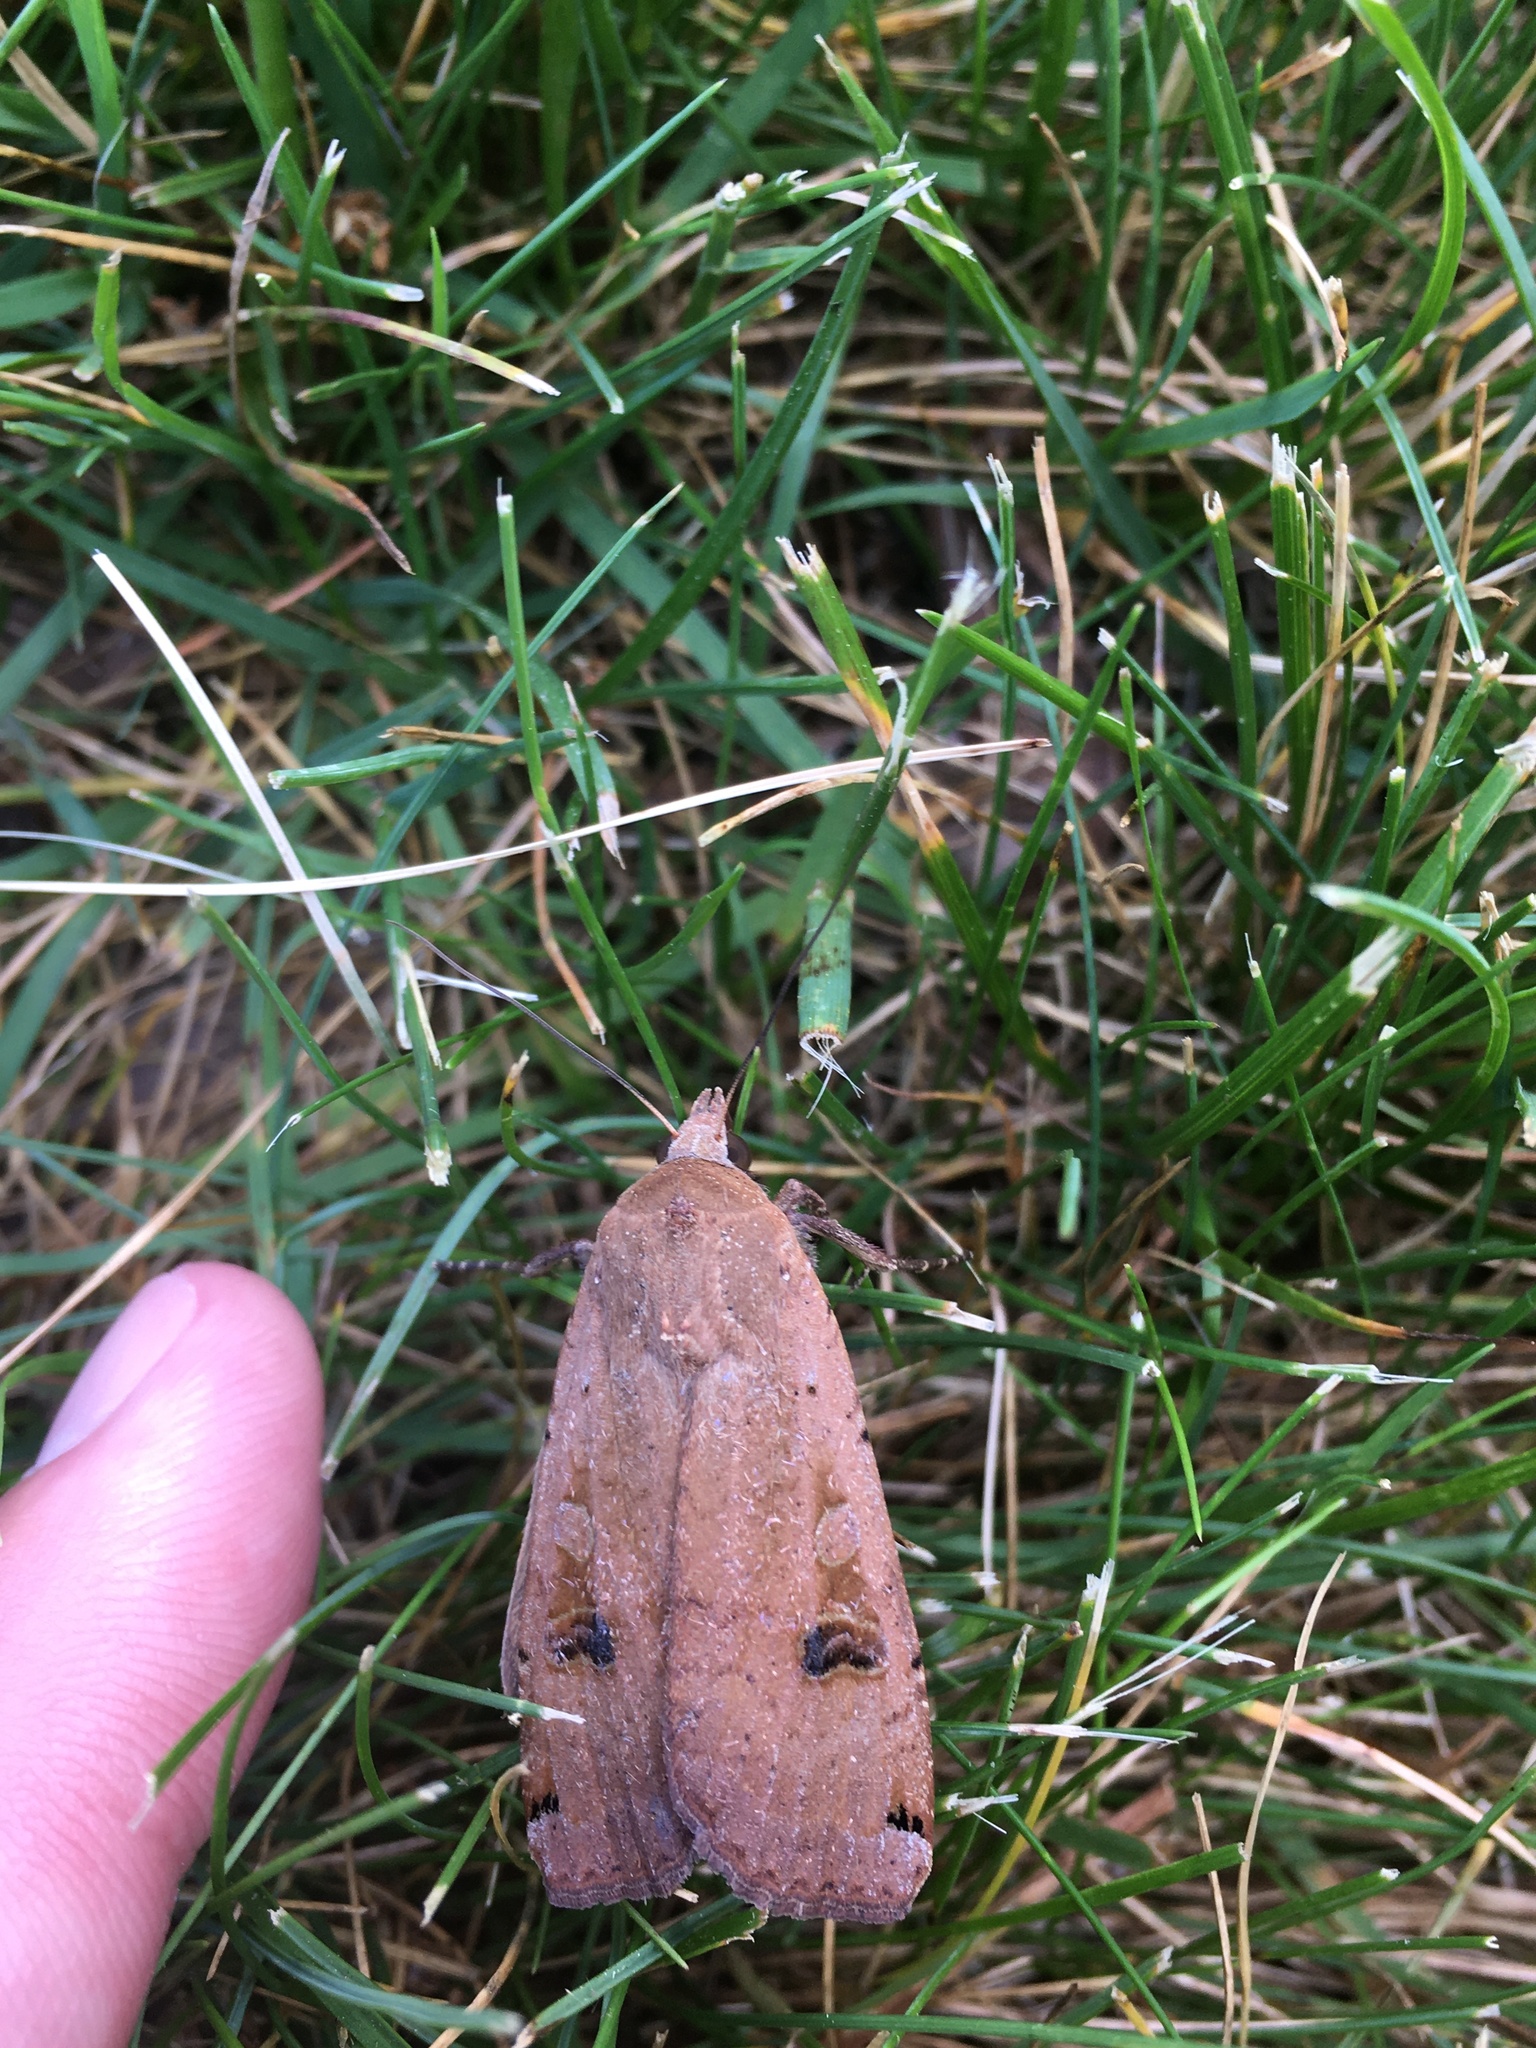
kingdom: Animalia
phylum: Arthropoda
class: Insecta
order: Lepidoptera
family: Noctuidae
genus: Noctua
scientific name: Noctua pronuba
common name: Large yellow underwing
